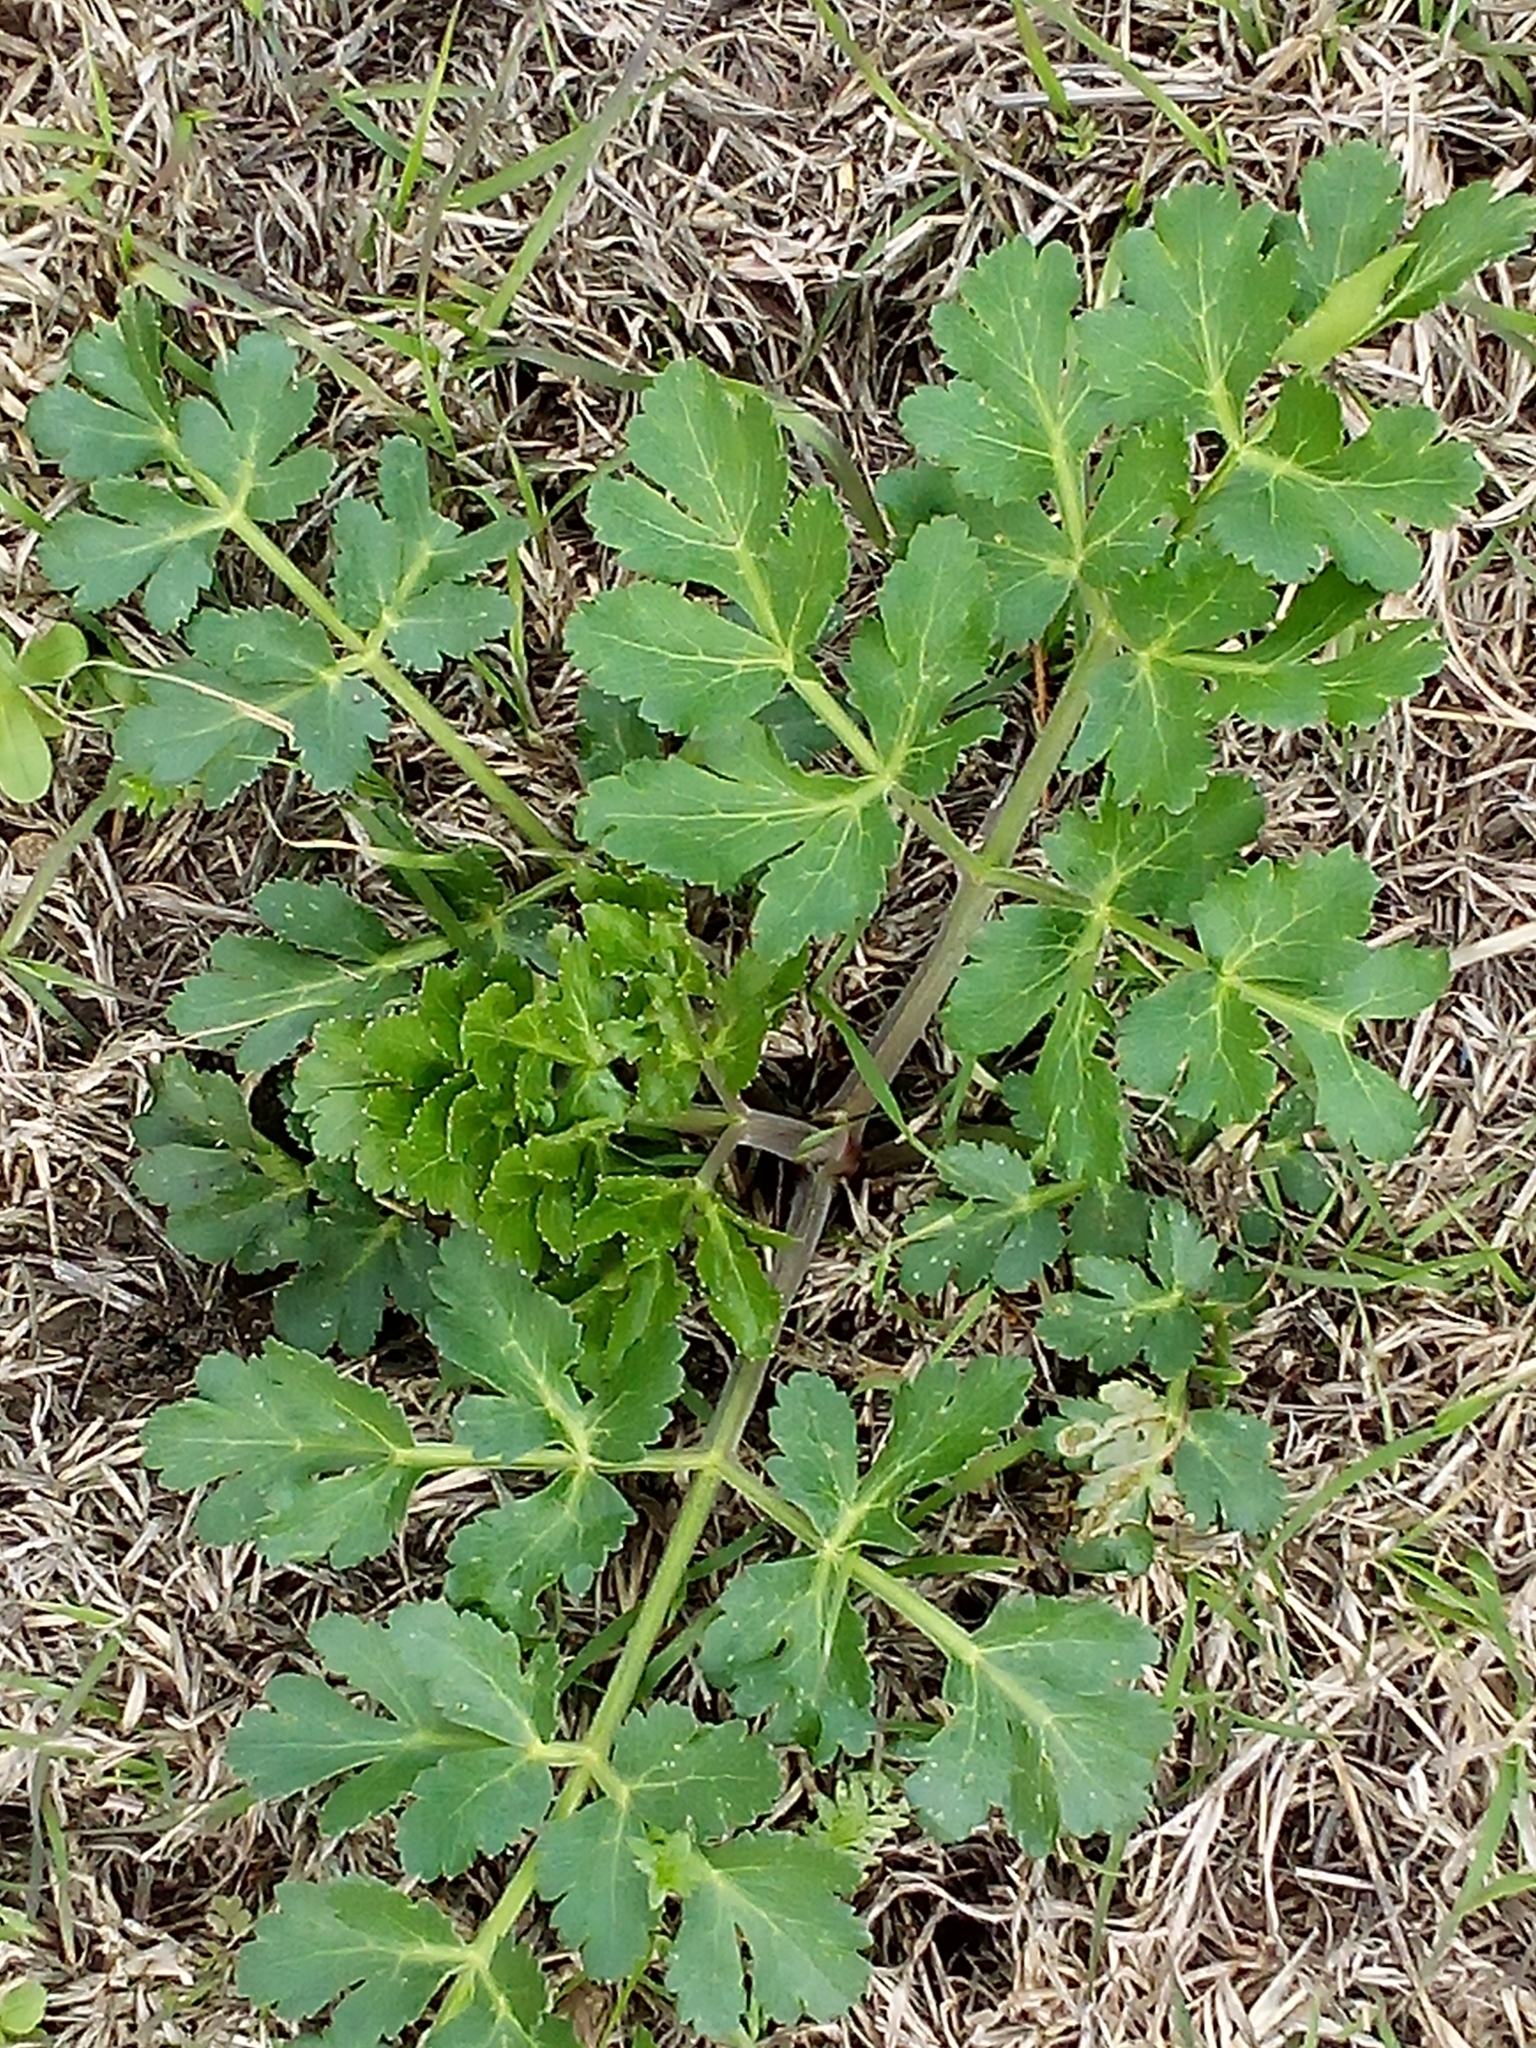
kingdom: Plantae
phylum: Tracheophyta
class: Magnoliopsida
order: Apiales
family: Apiaceae
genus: Polytaenia
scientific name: Polytaenia texana
